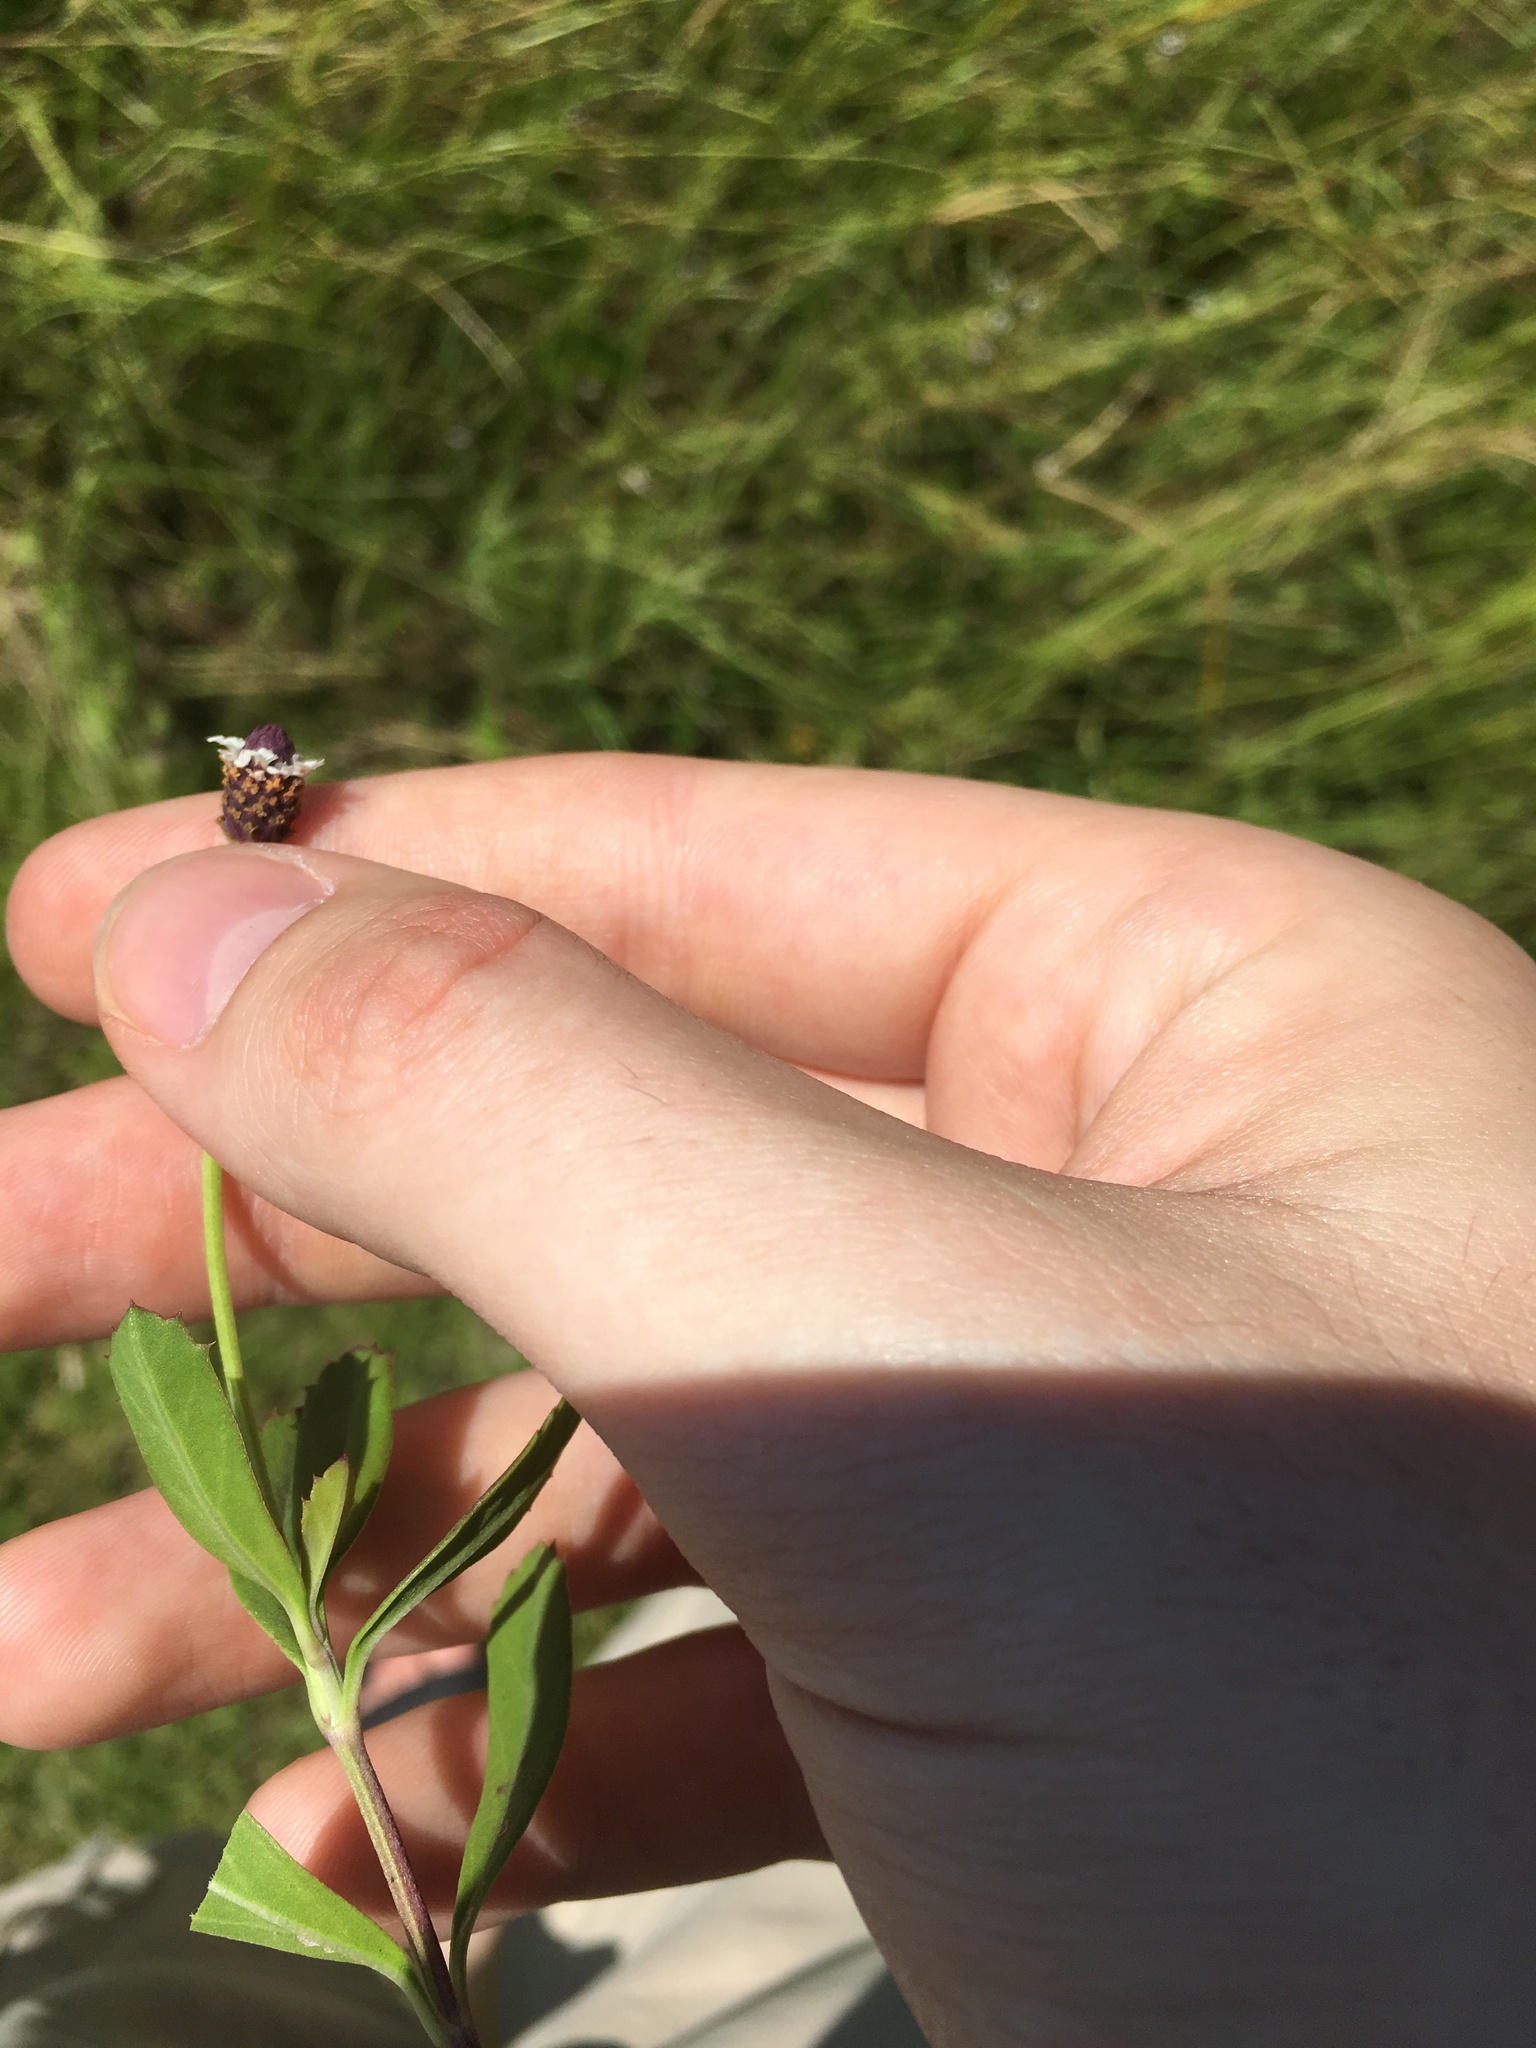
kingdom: Plantae
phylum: Tracheophyta
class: Magnoliopsida
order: Lamiales
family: Verbenaceae
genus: Phyla
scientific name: Phyla nodiflora
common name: Frogfruit
